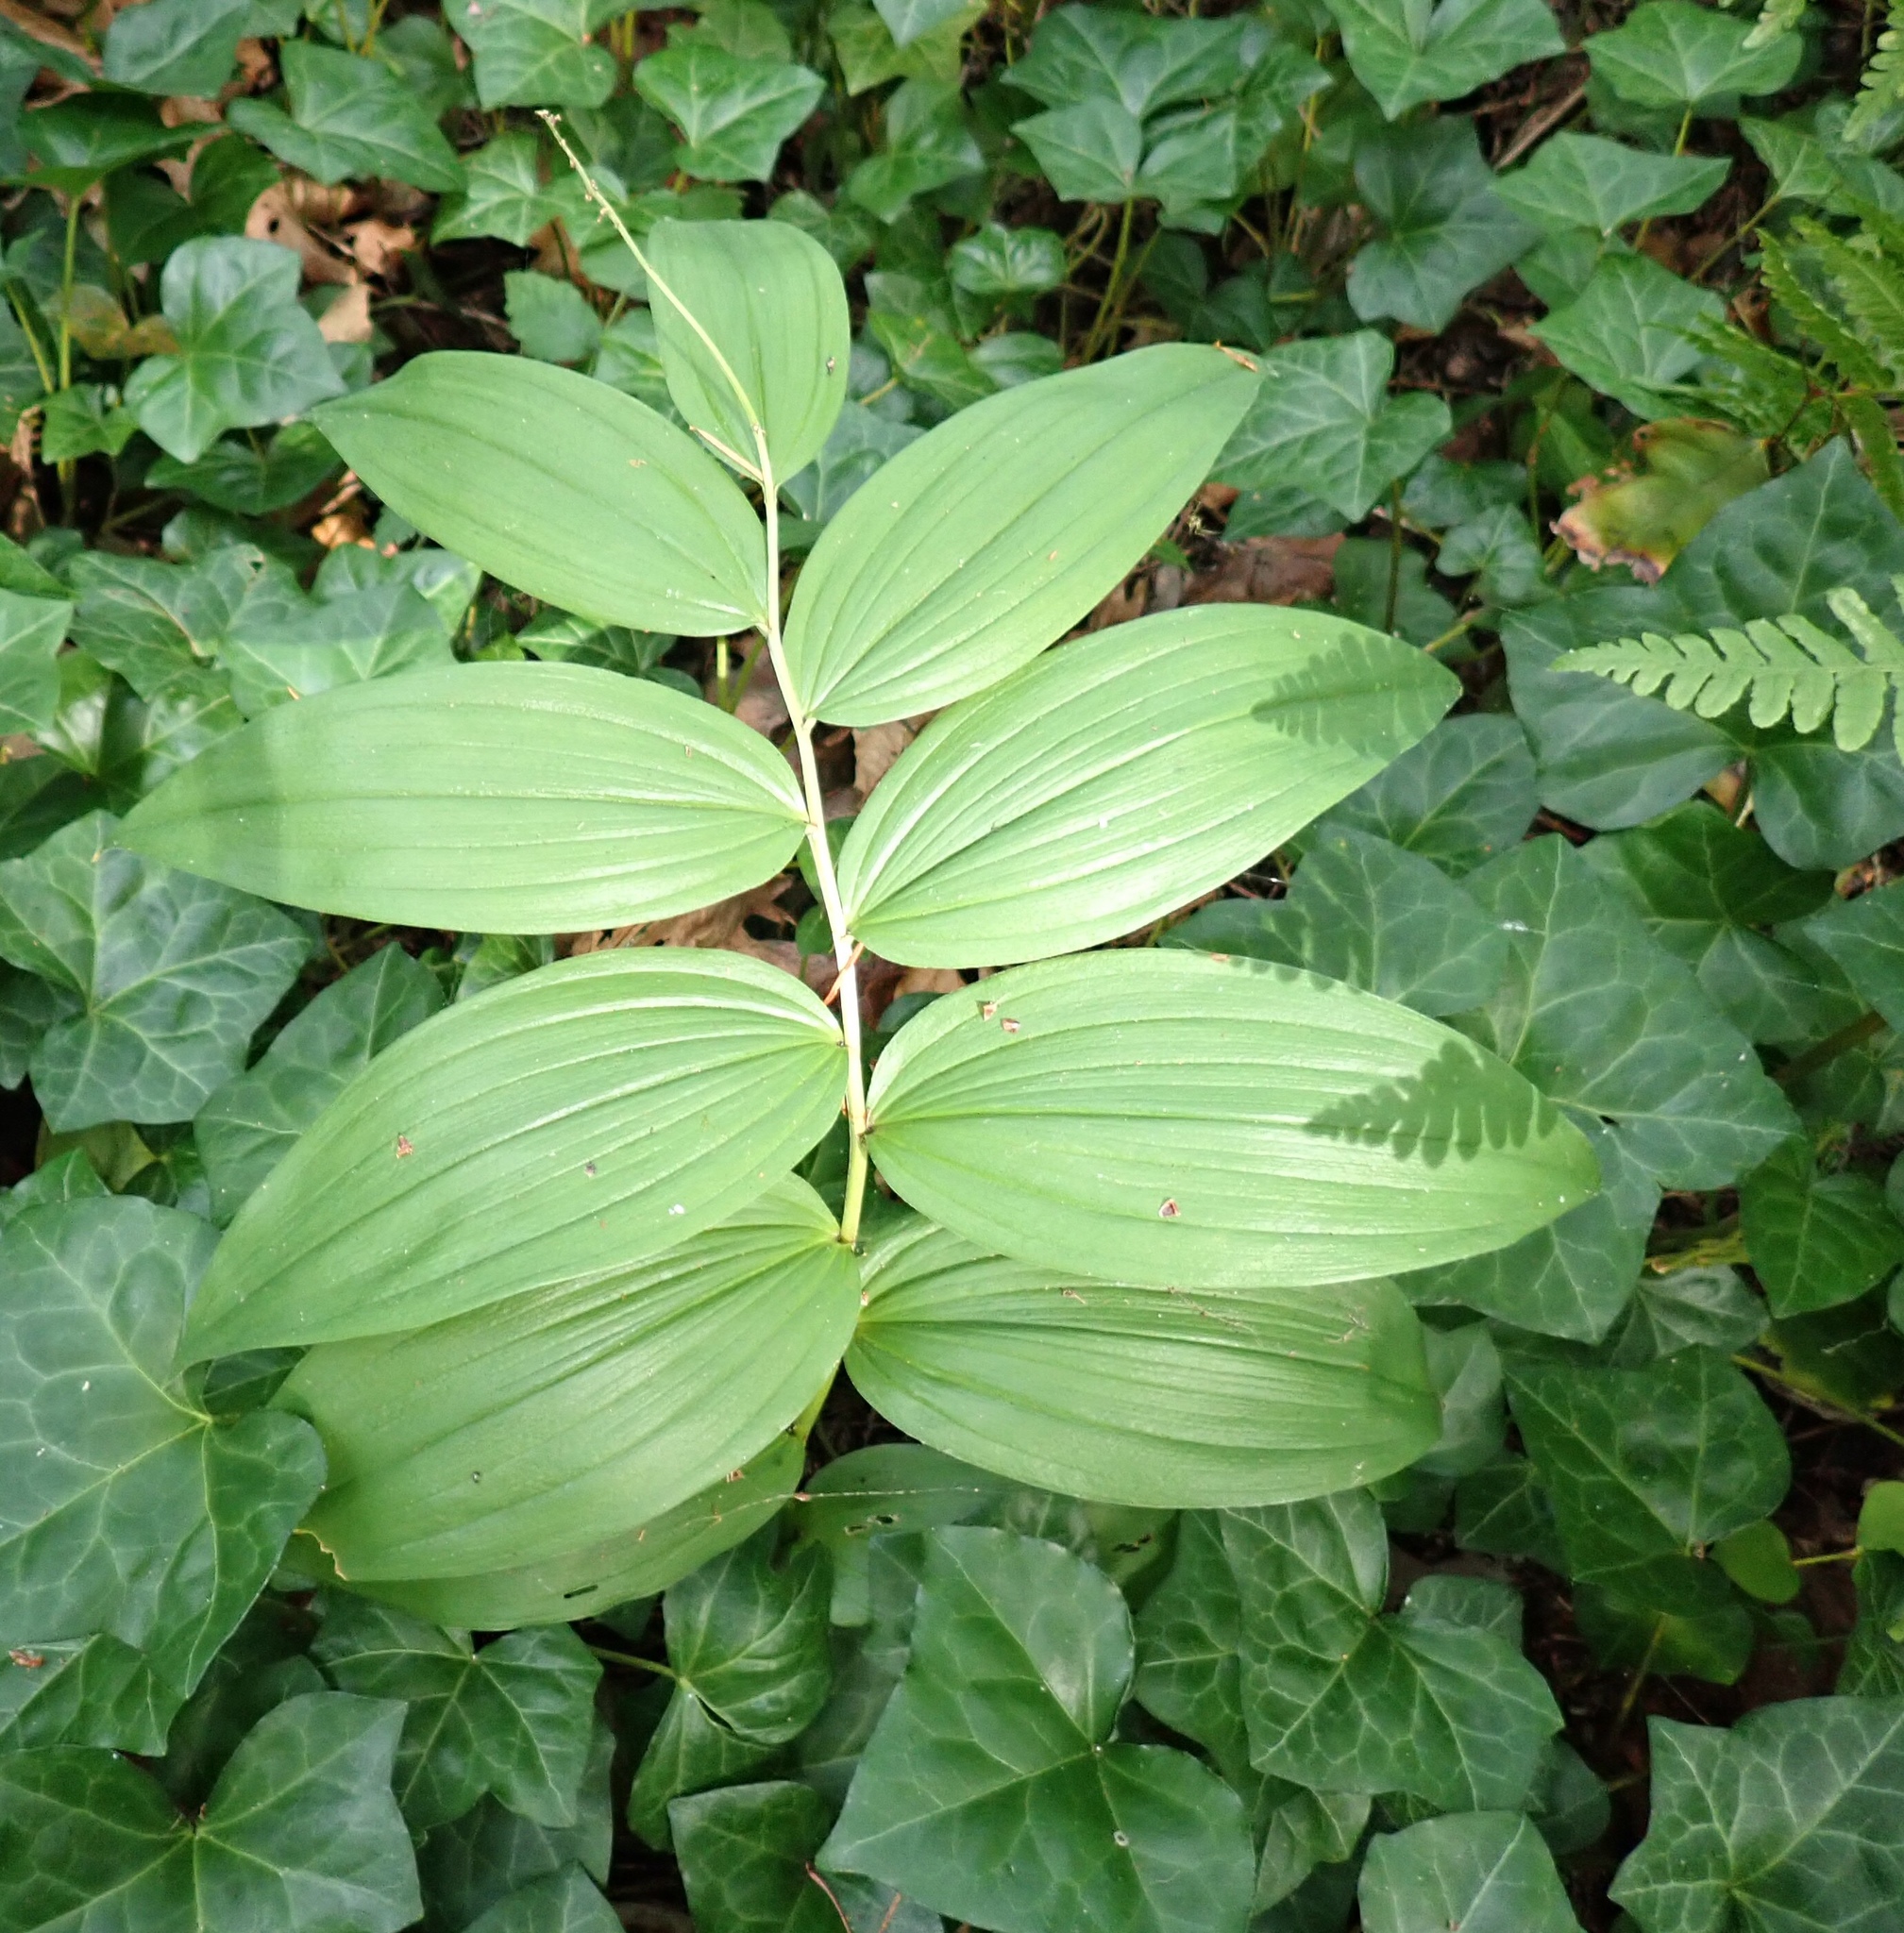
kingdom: Plantae
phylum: Tracheophyta
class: Liliopsida
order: Asparagales
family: Asparagaceae
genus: Maianthemum
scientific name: Maianthemum racemosum
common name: False spikenard
